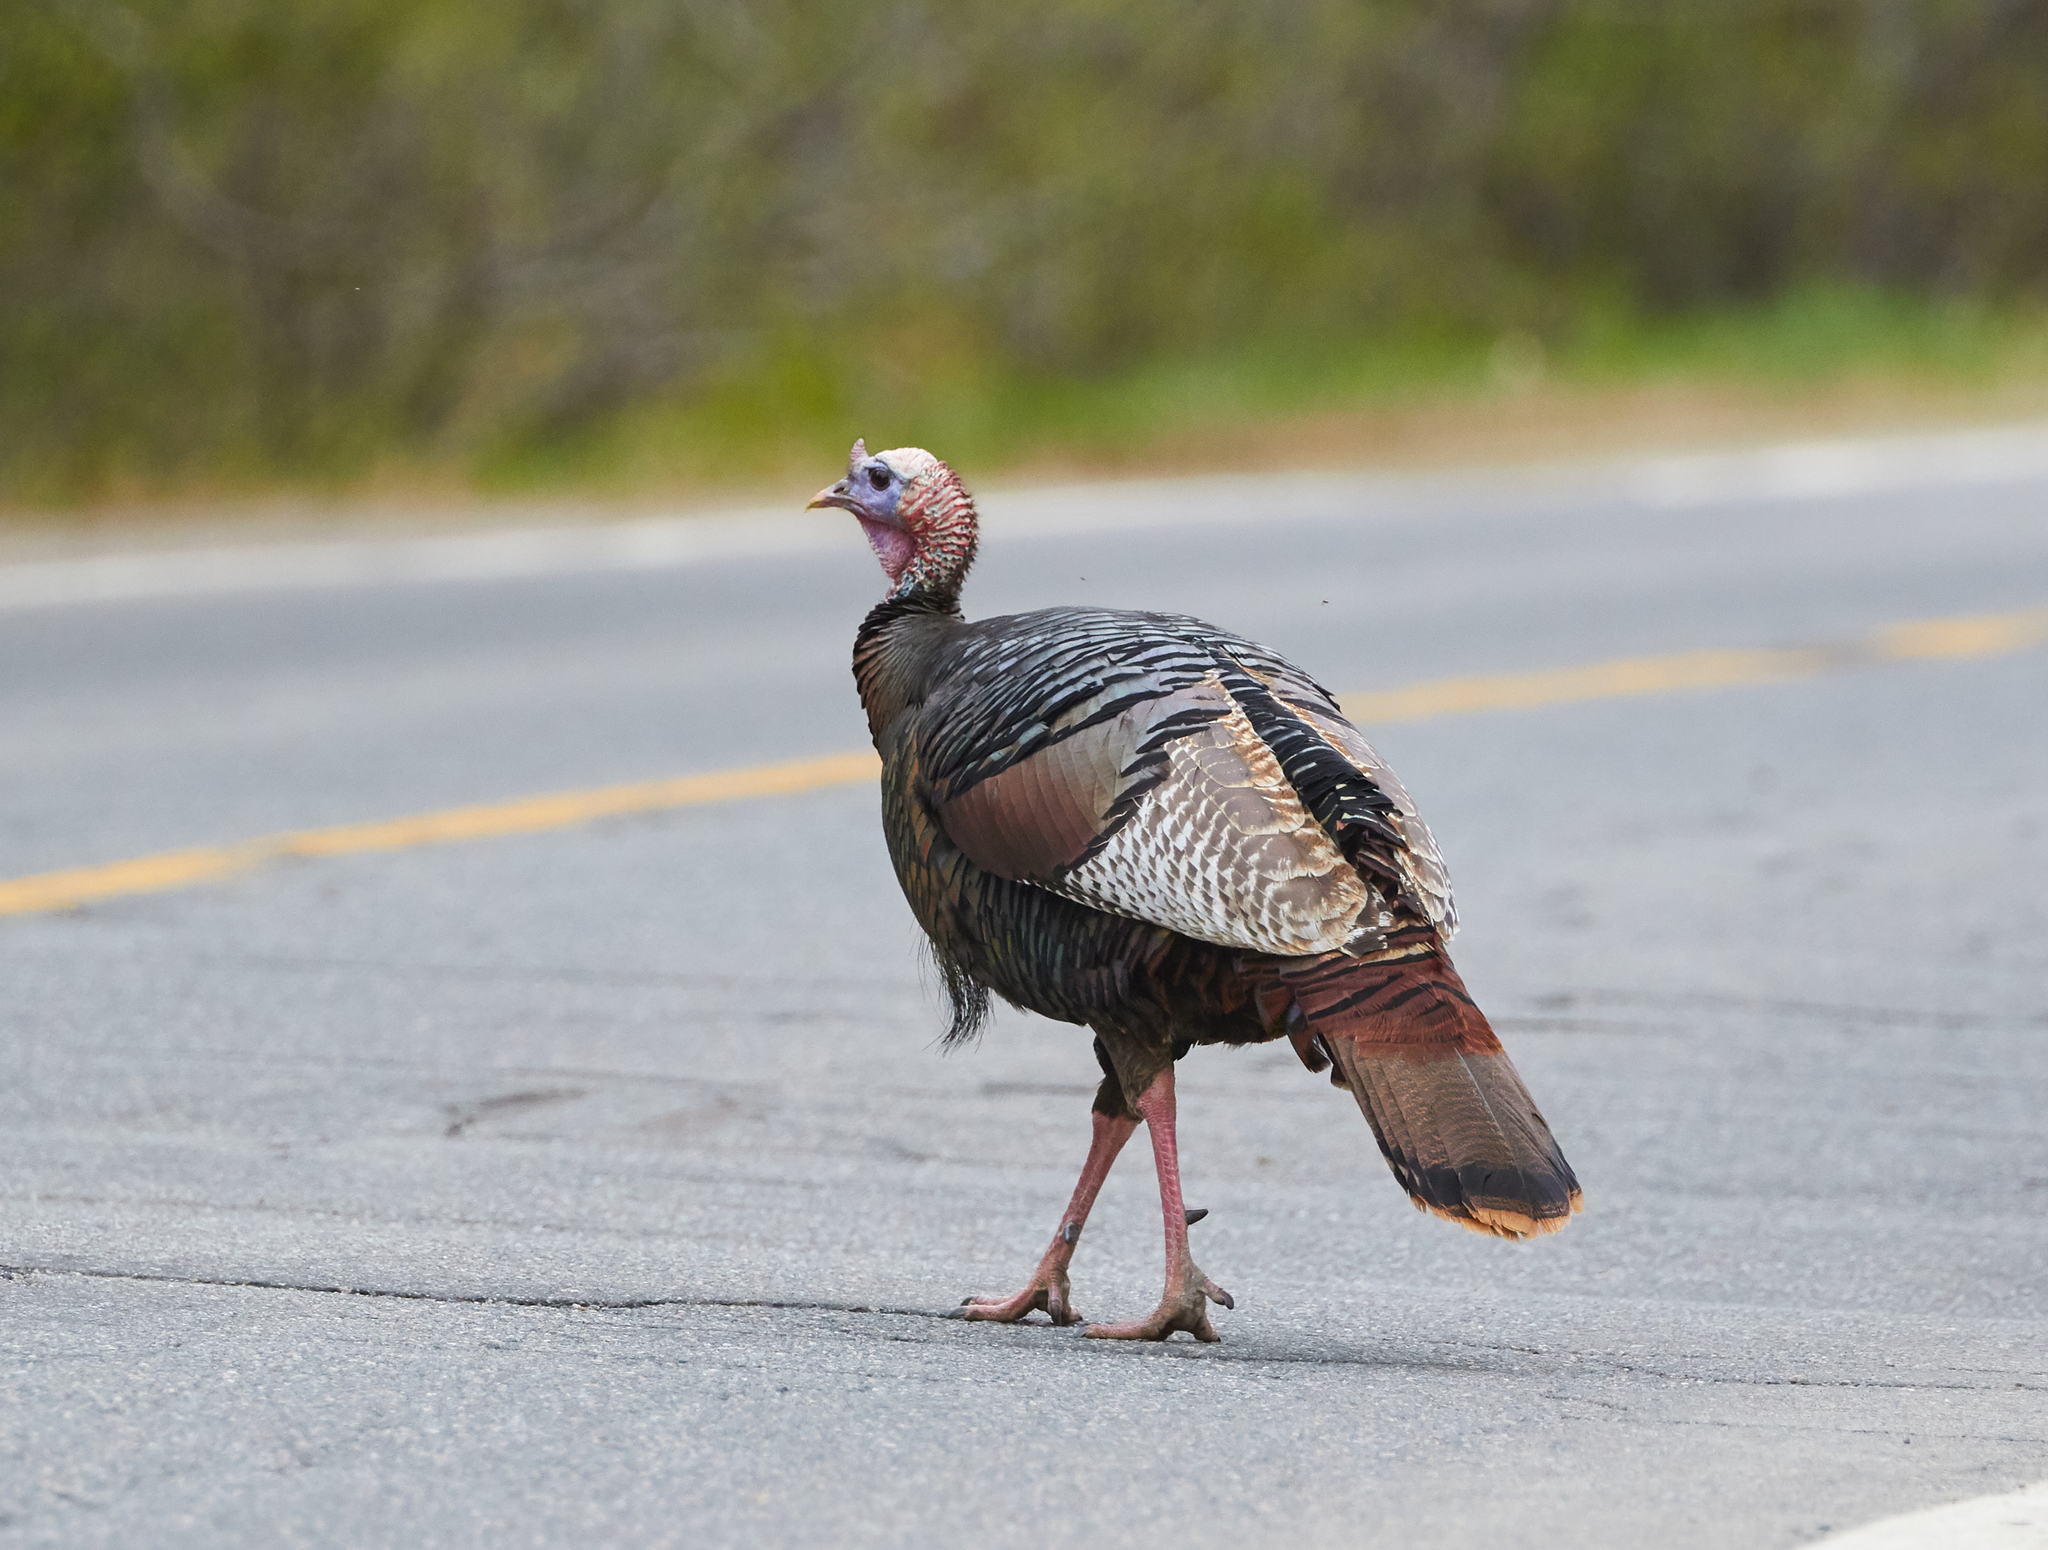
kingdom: Animalia
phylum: Chordata
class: Aves
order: Galliformes
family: Phasianidae
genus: Meleagris
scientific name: Meleagris gallopavo
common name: Wild turkey
